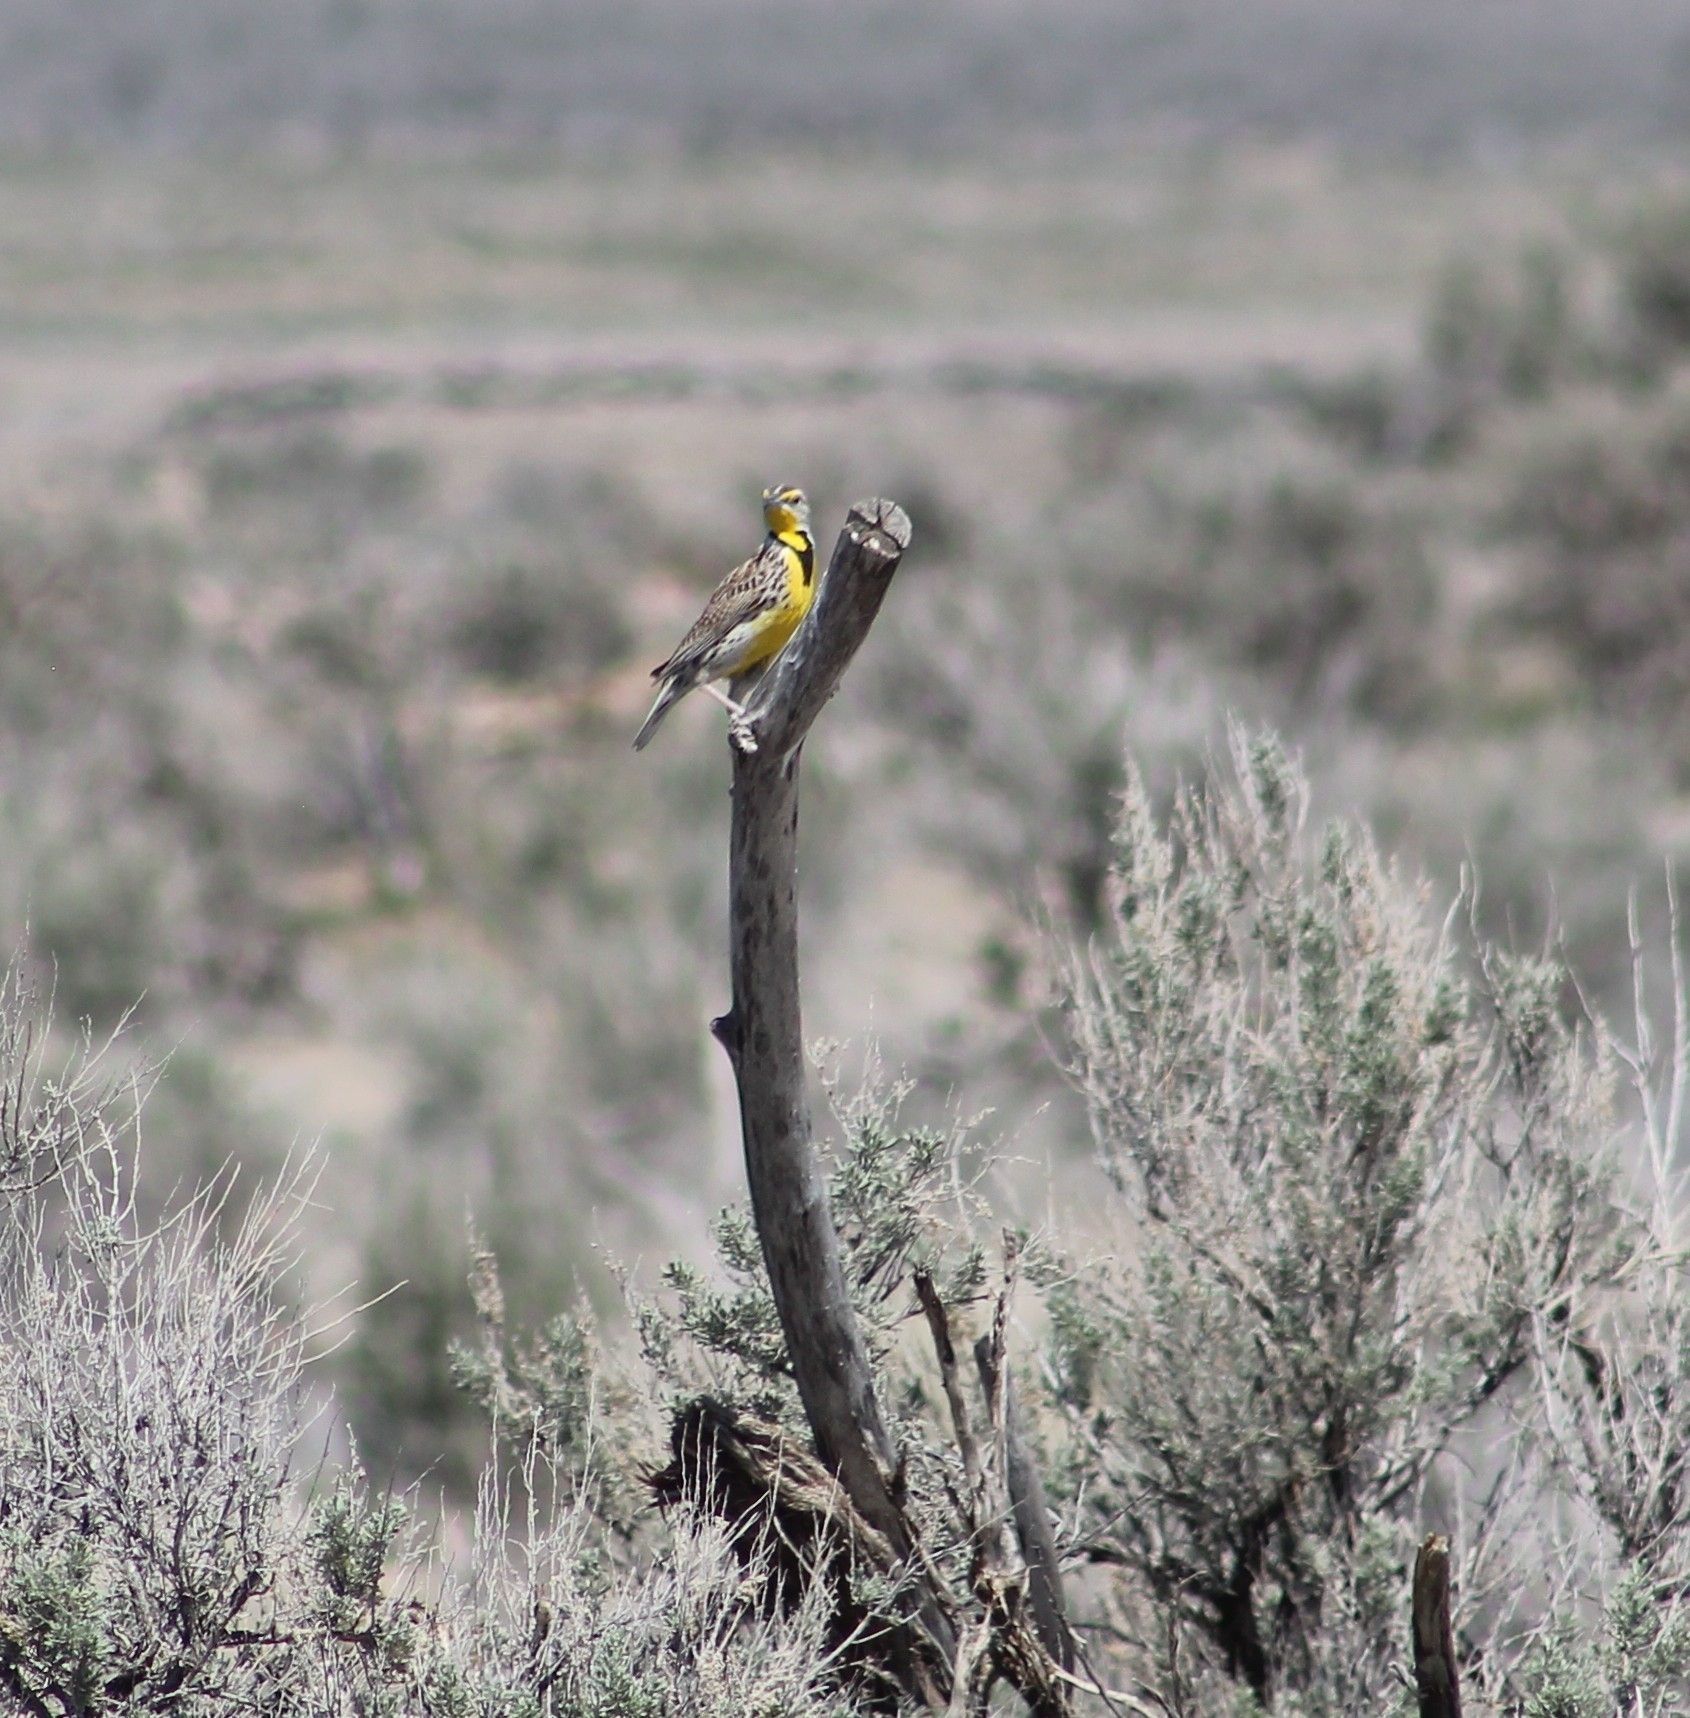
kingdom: Animalia
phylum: Chordata
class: Aves
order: Passeriformes
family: Icteridae
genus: Sturnella
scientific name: Sturnella neglecta
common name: Western meadowlark
